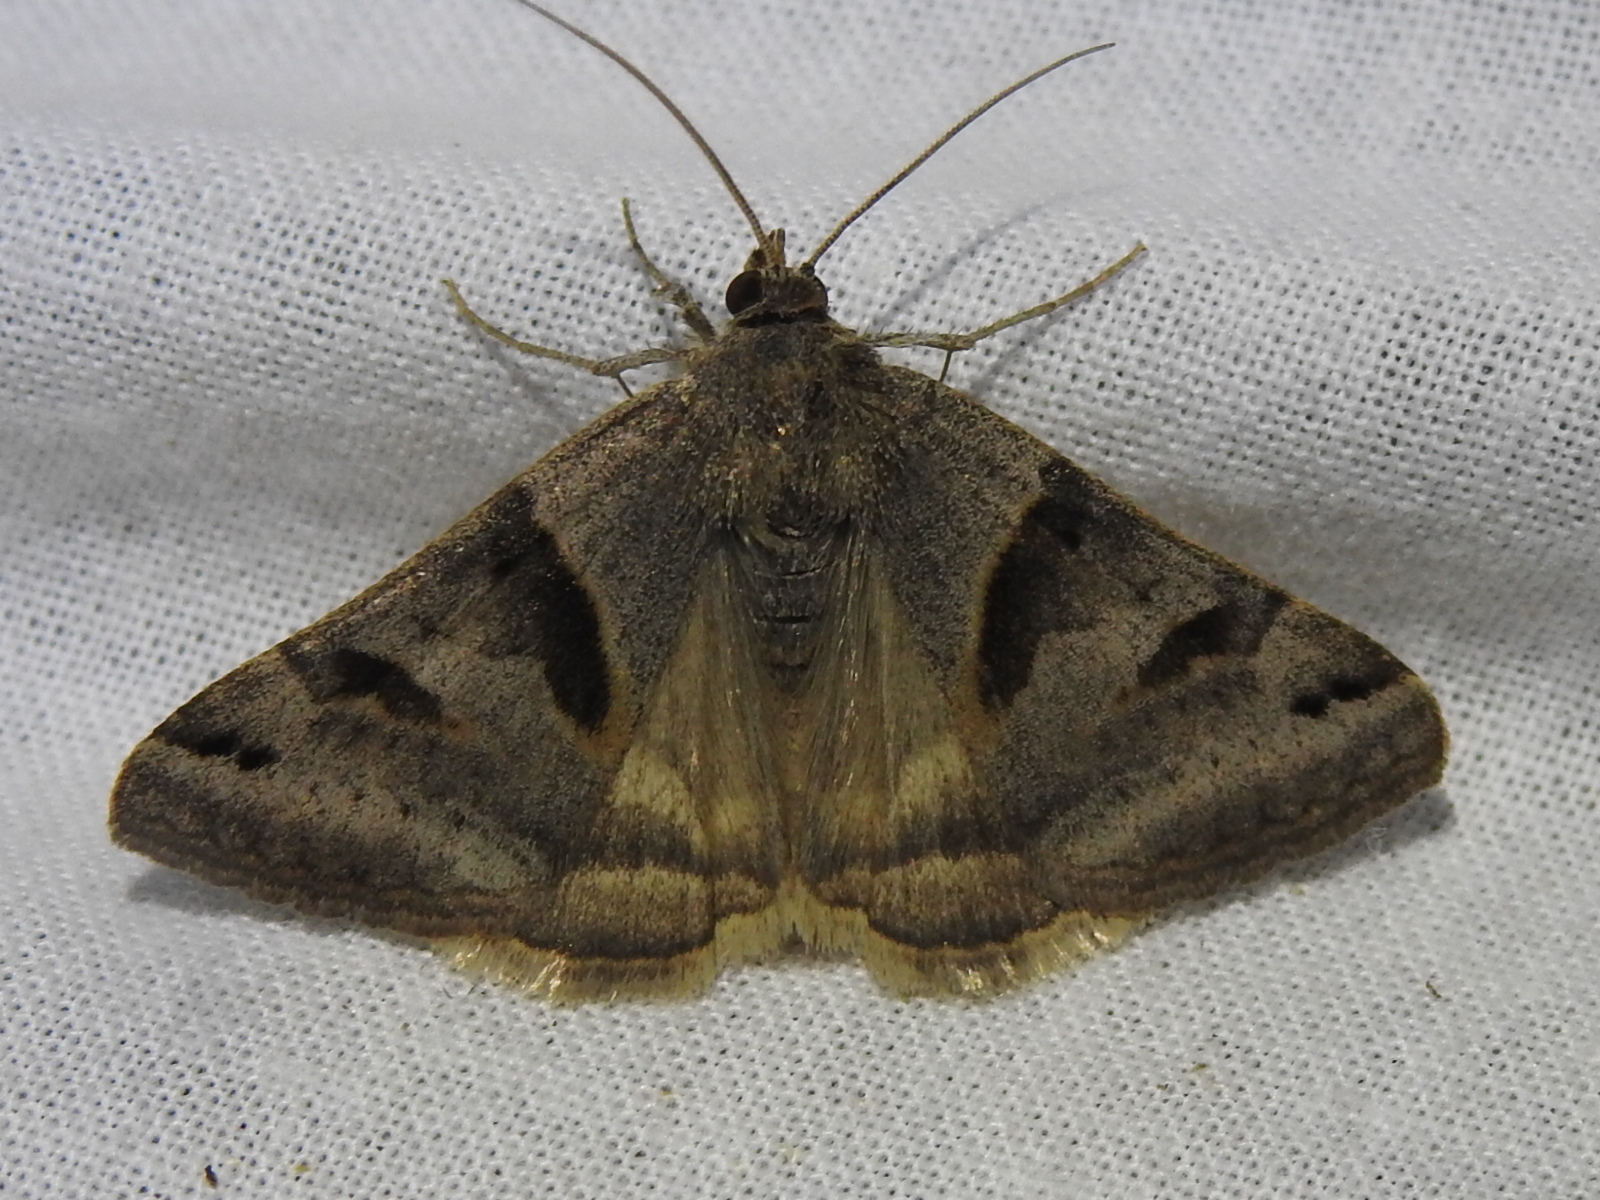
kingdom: Animalia
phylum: Arthropoda
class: Insecta
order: Lepidoptera
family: Erebidae
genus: Caenurgina
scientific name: Caenurgina erechtea
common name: Forage looper moth
